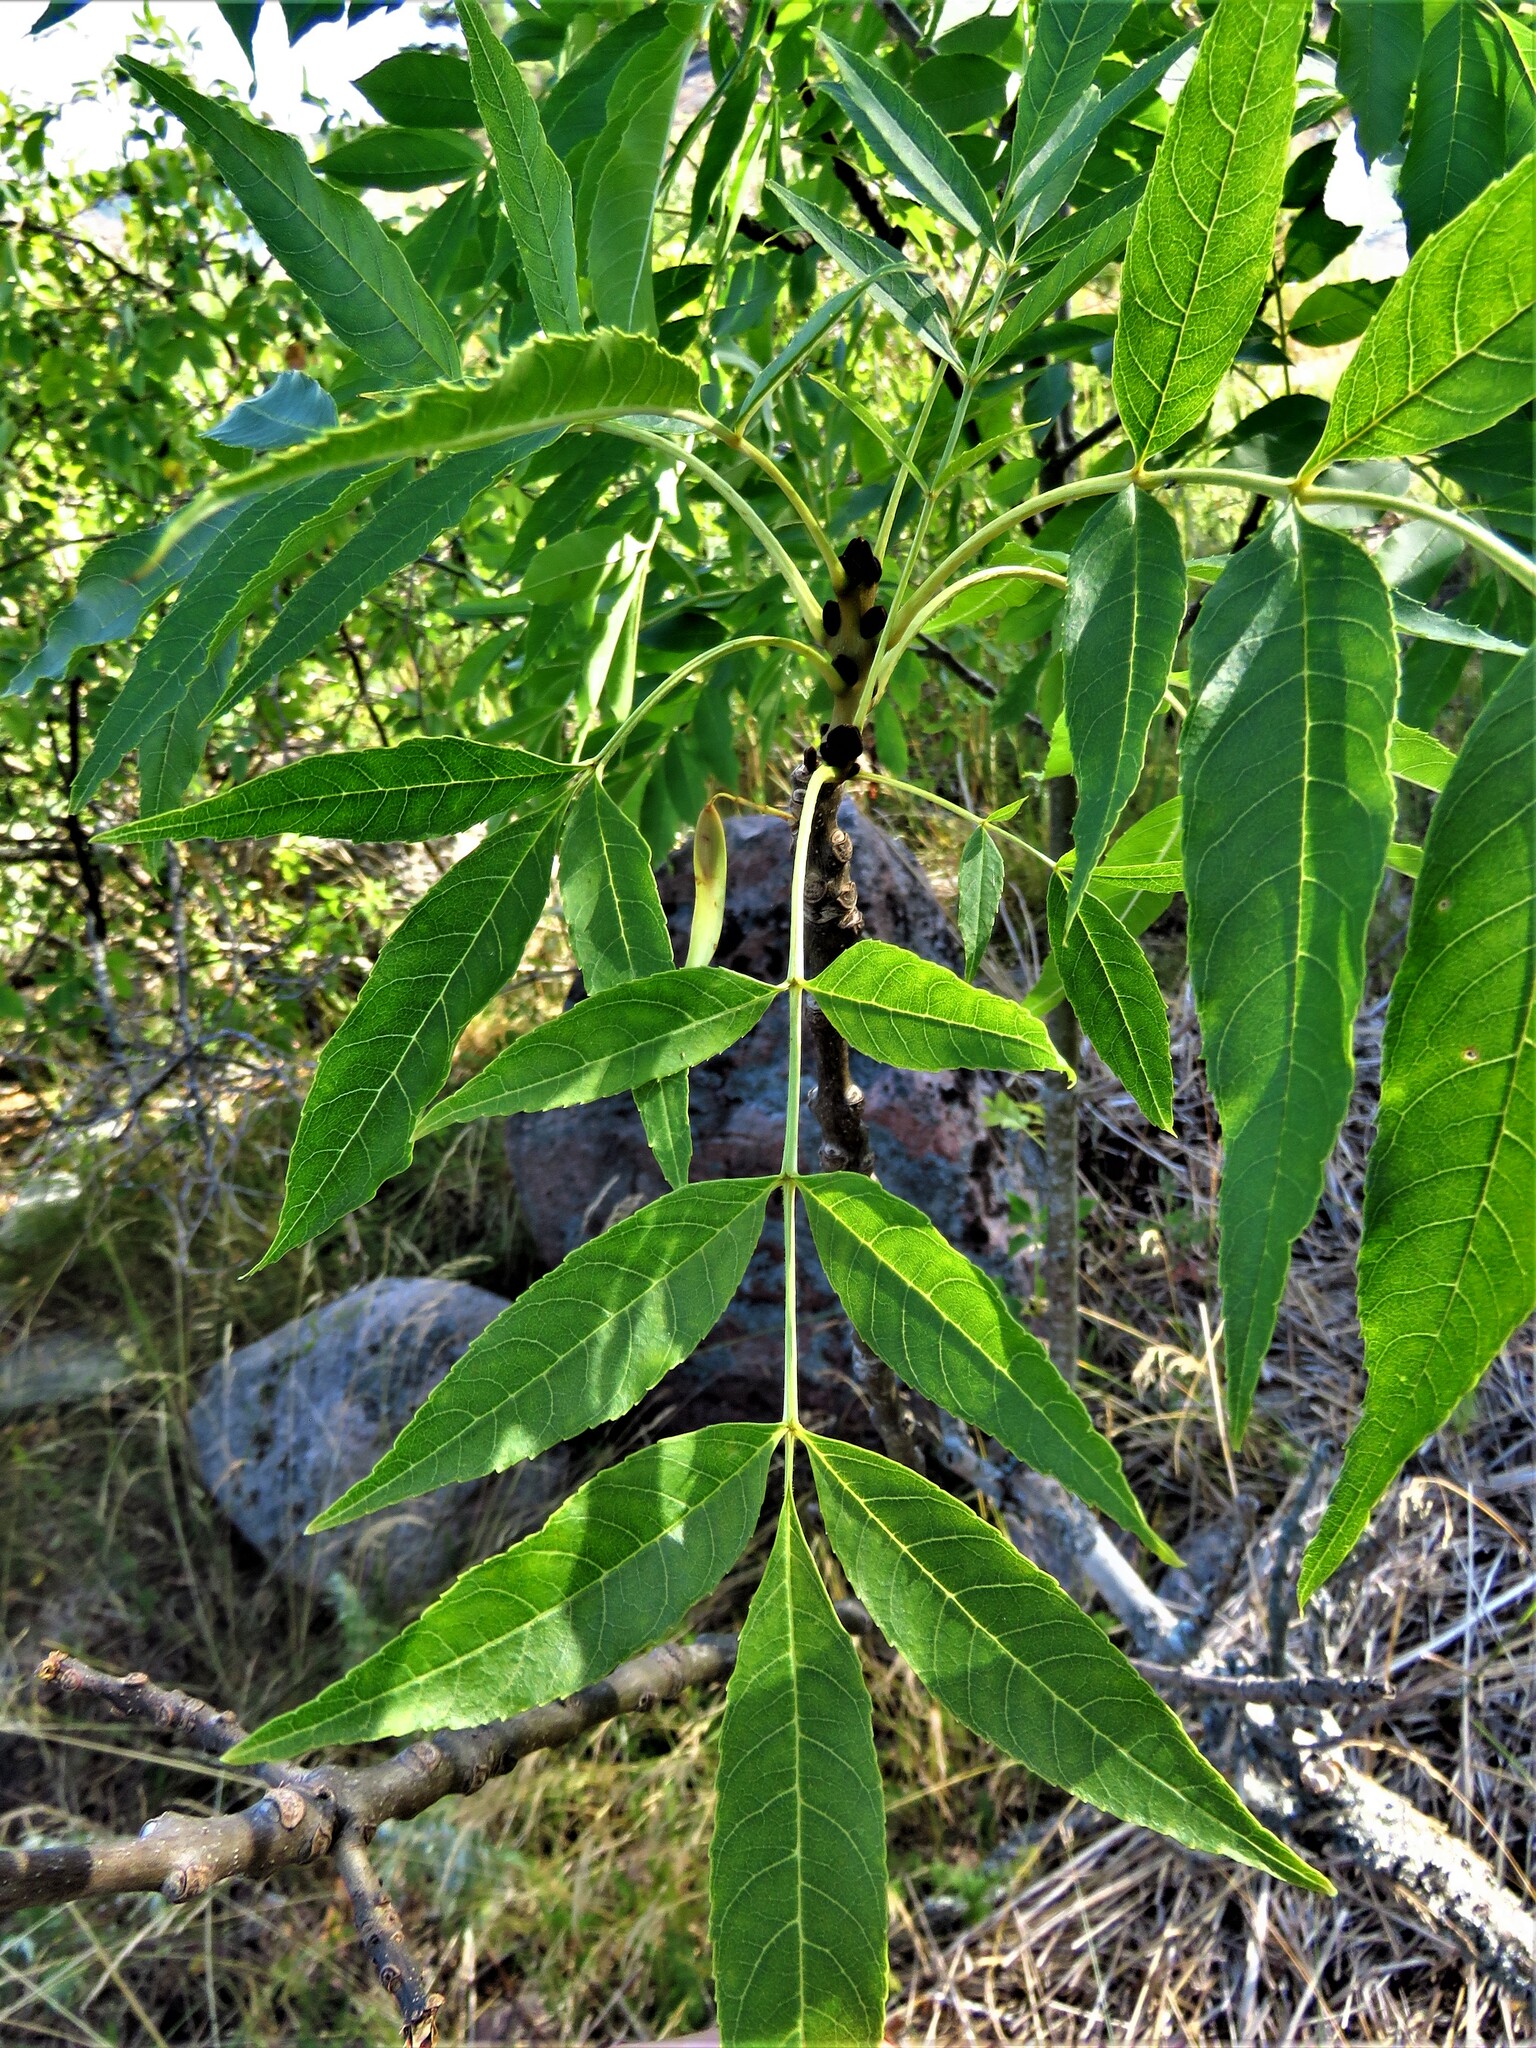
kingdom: Plantae
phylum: Tracheophyta
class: Magnoliopsida
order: Lamiales
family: Oleaceae
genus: Fraxinus
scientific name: Fraxinus excelsior
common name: European ash
